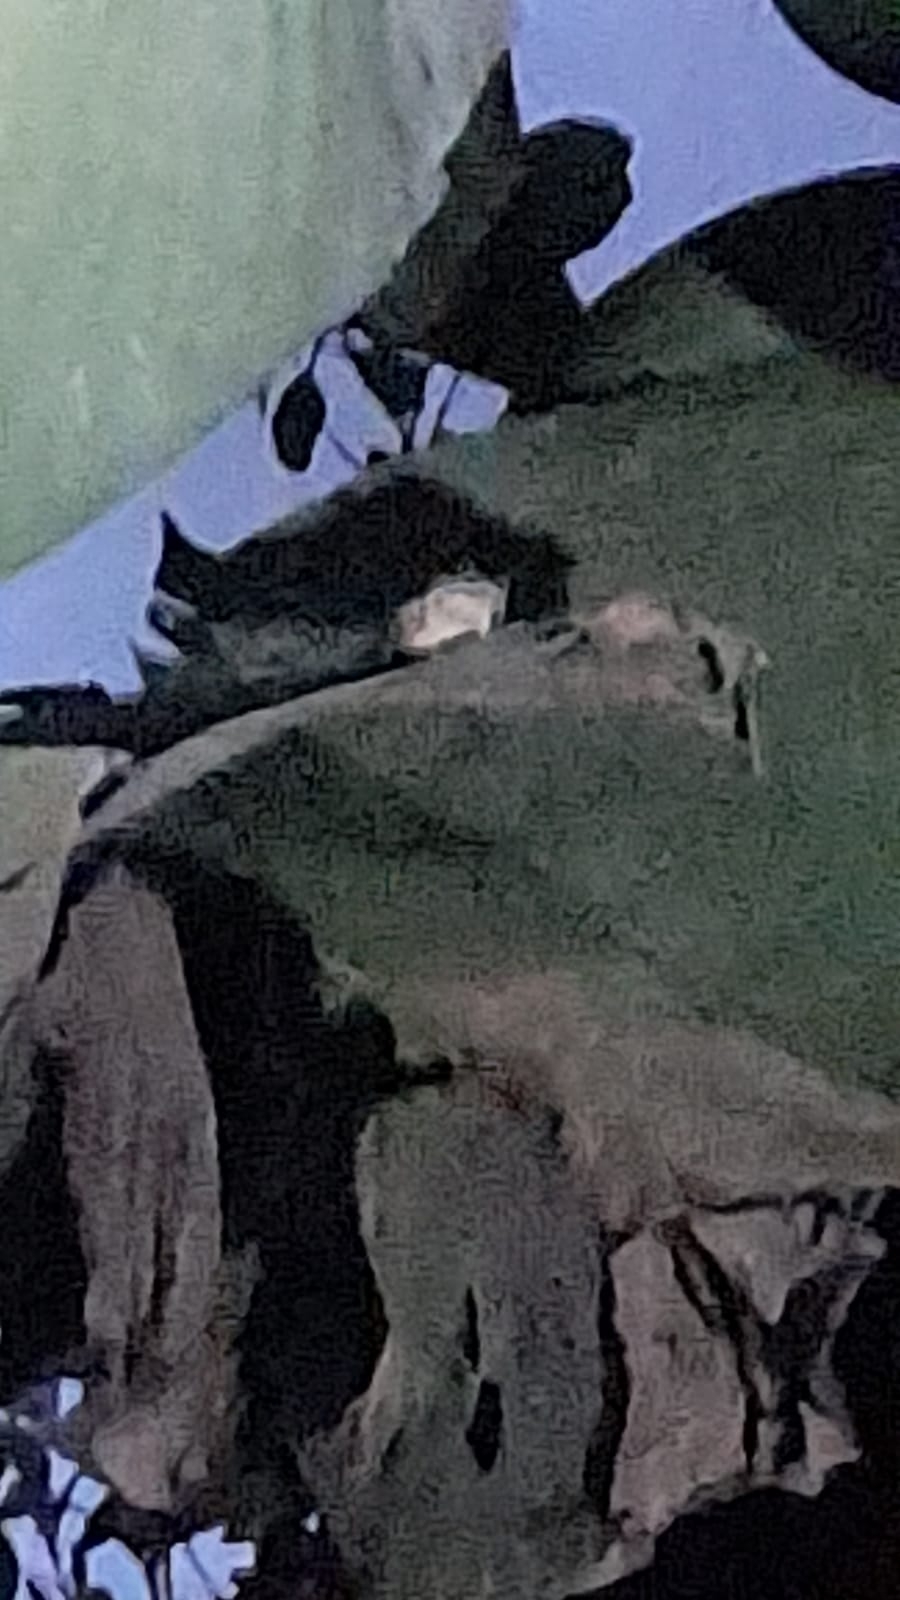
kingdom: Animalia
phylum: Chordata
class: Amphibia
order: Anura
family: Phyllomedusidae
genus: Agalychnis
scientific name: Agalychnis moreletii
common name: Black-eyed leaf frog
